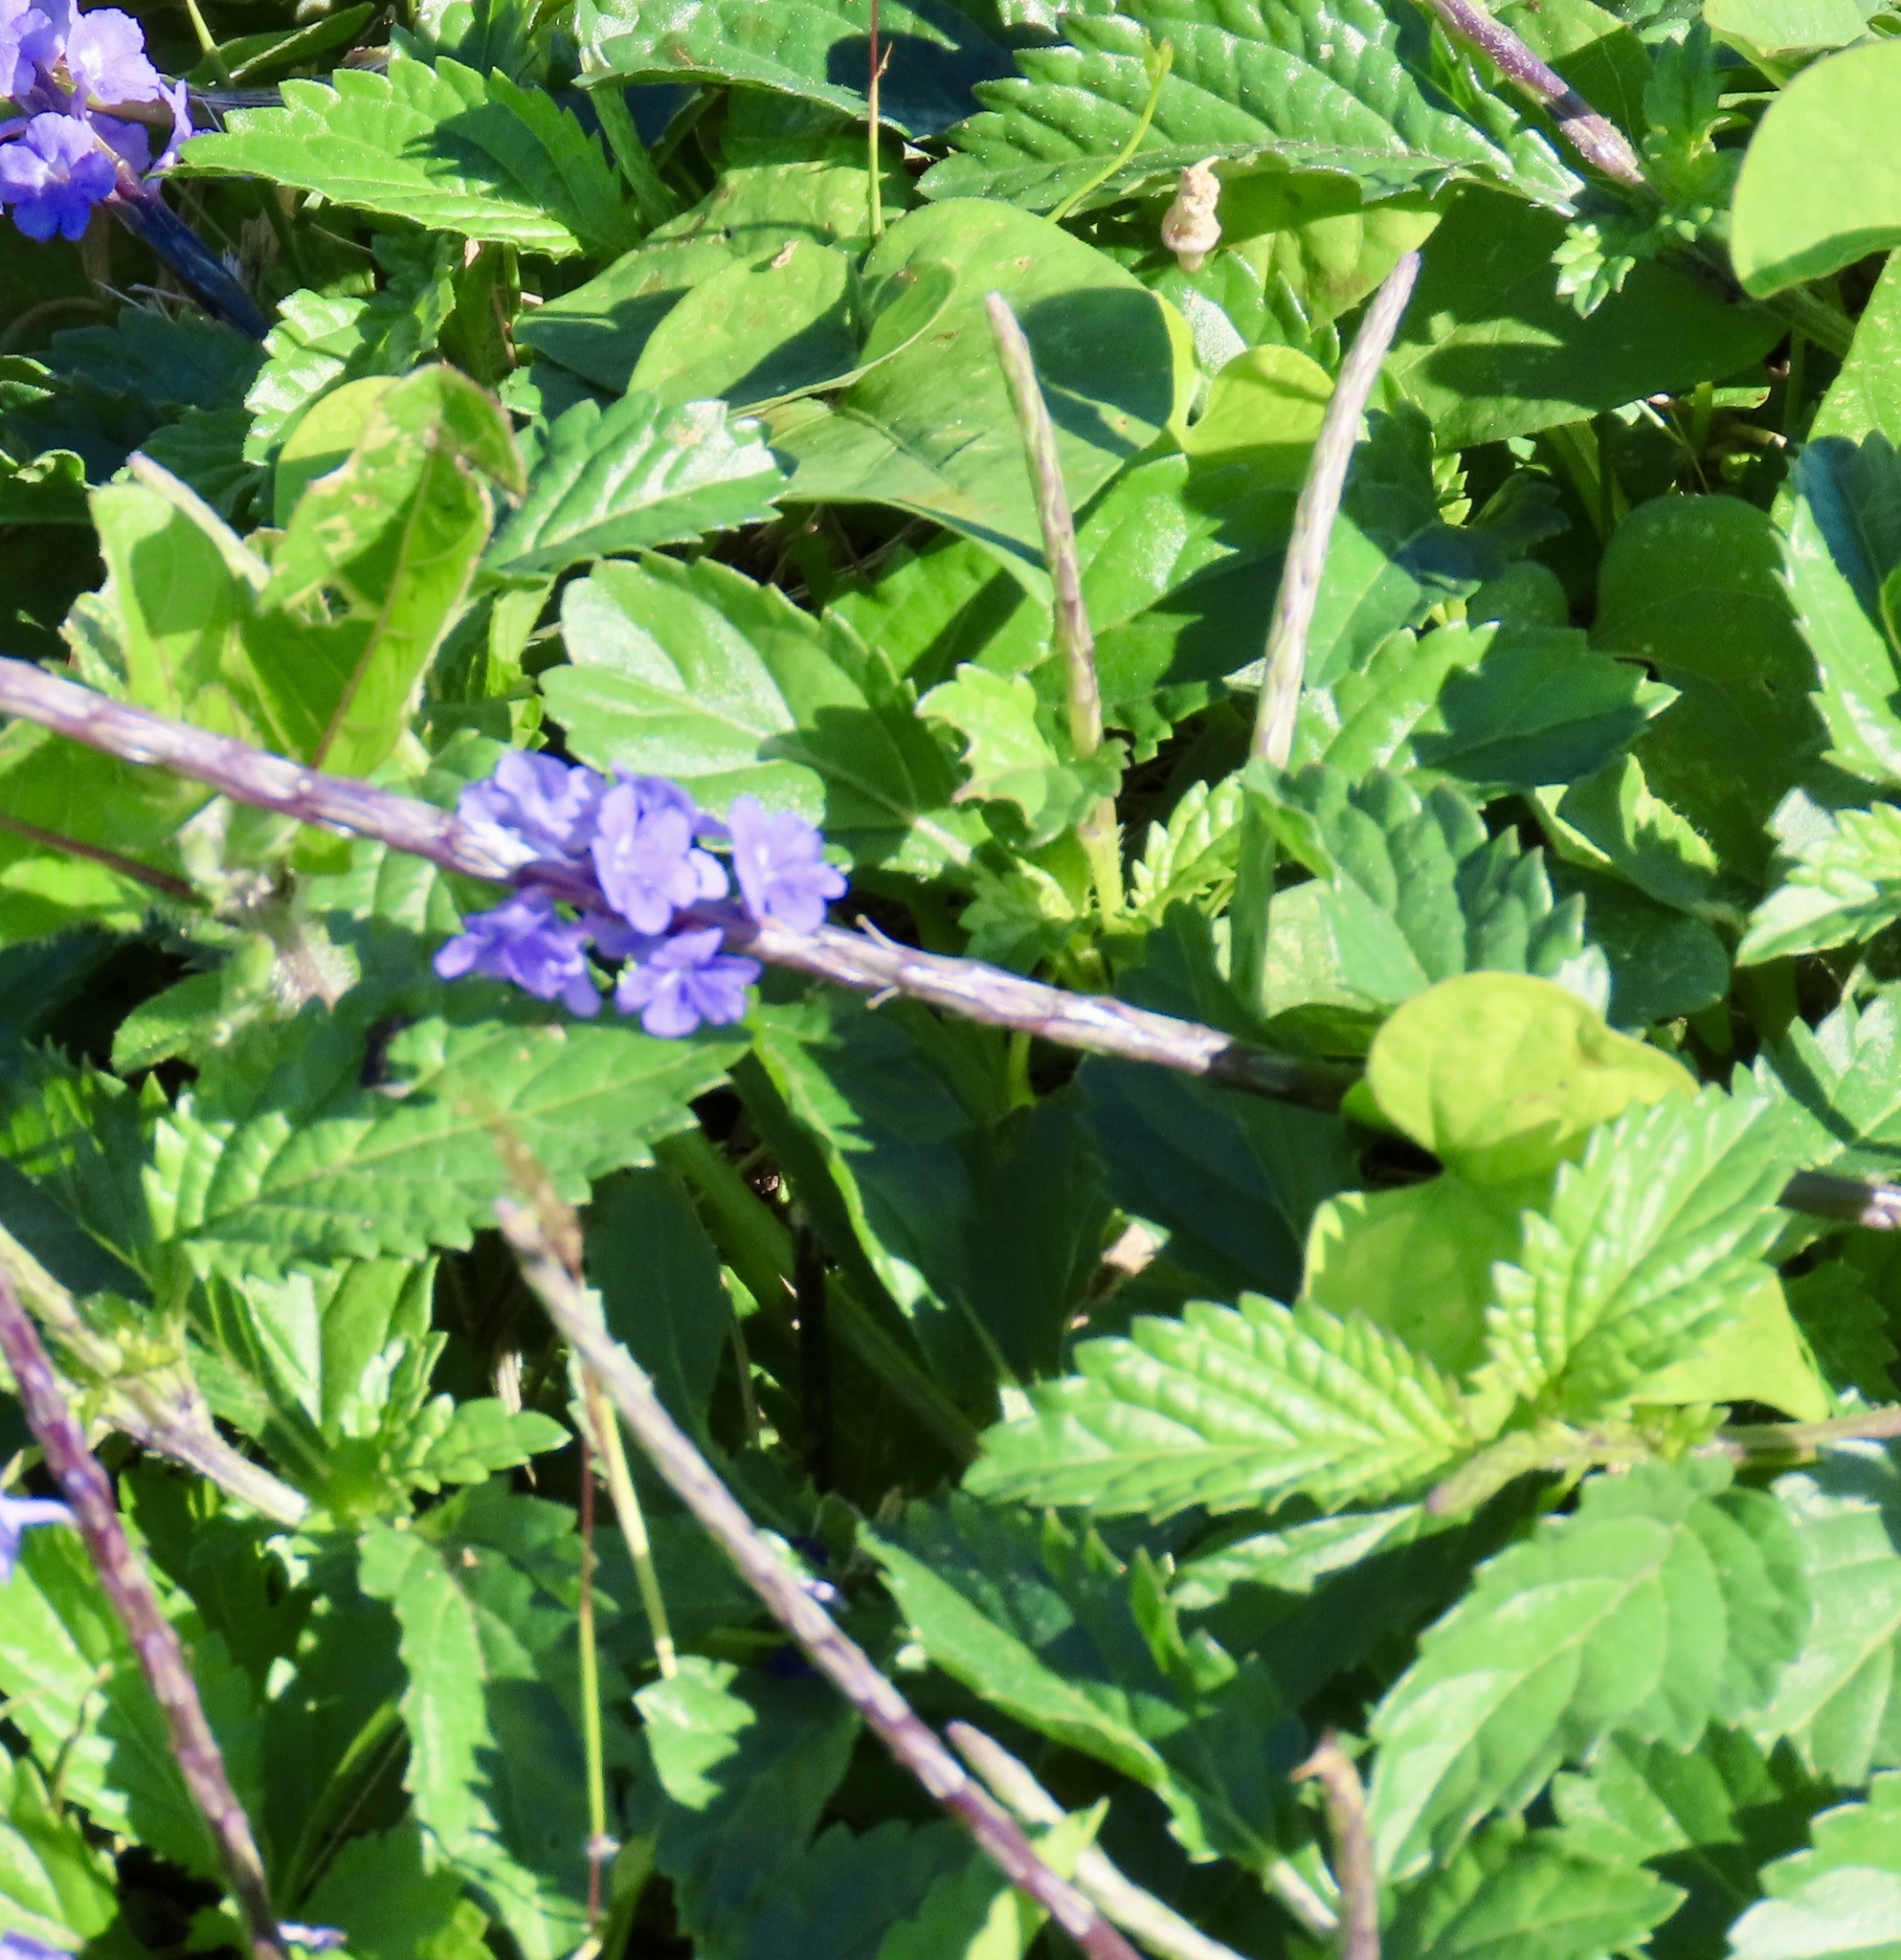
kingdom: Plantae
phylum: Tracheophyta
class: Magnoliopsida
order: Lamiales
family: Verbenaceae
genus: Stachytarpheta
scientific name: Stachytarpheta jamaicensis
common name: Light-blue snakeweed
